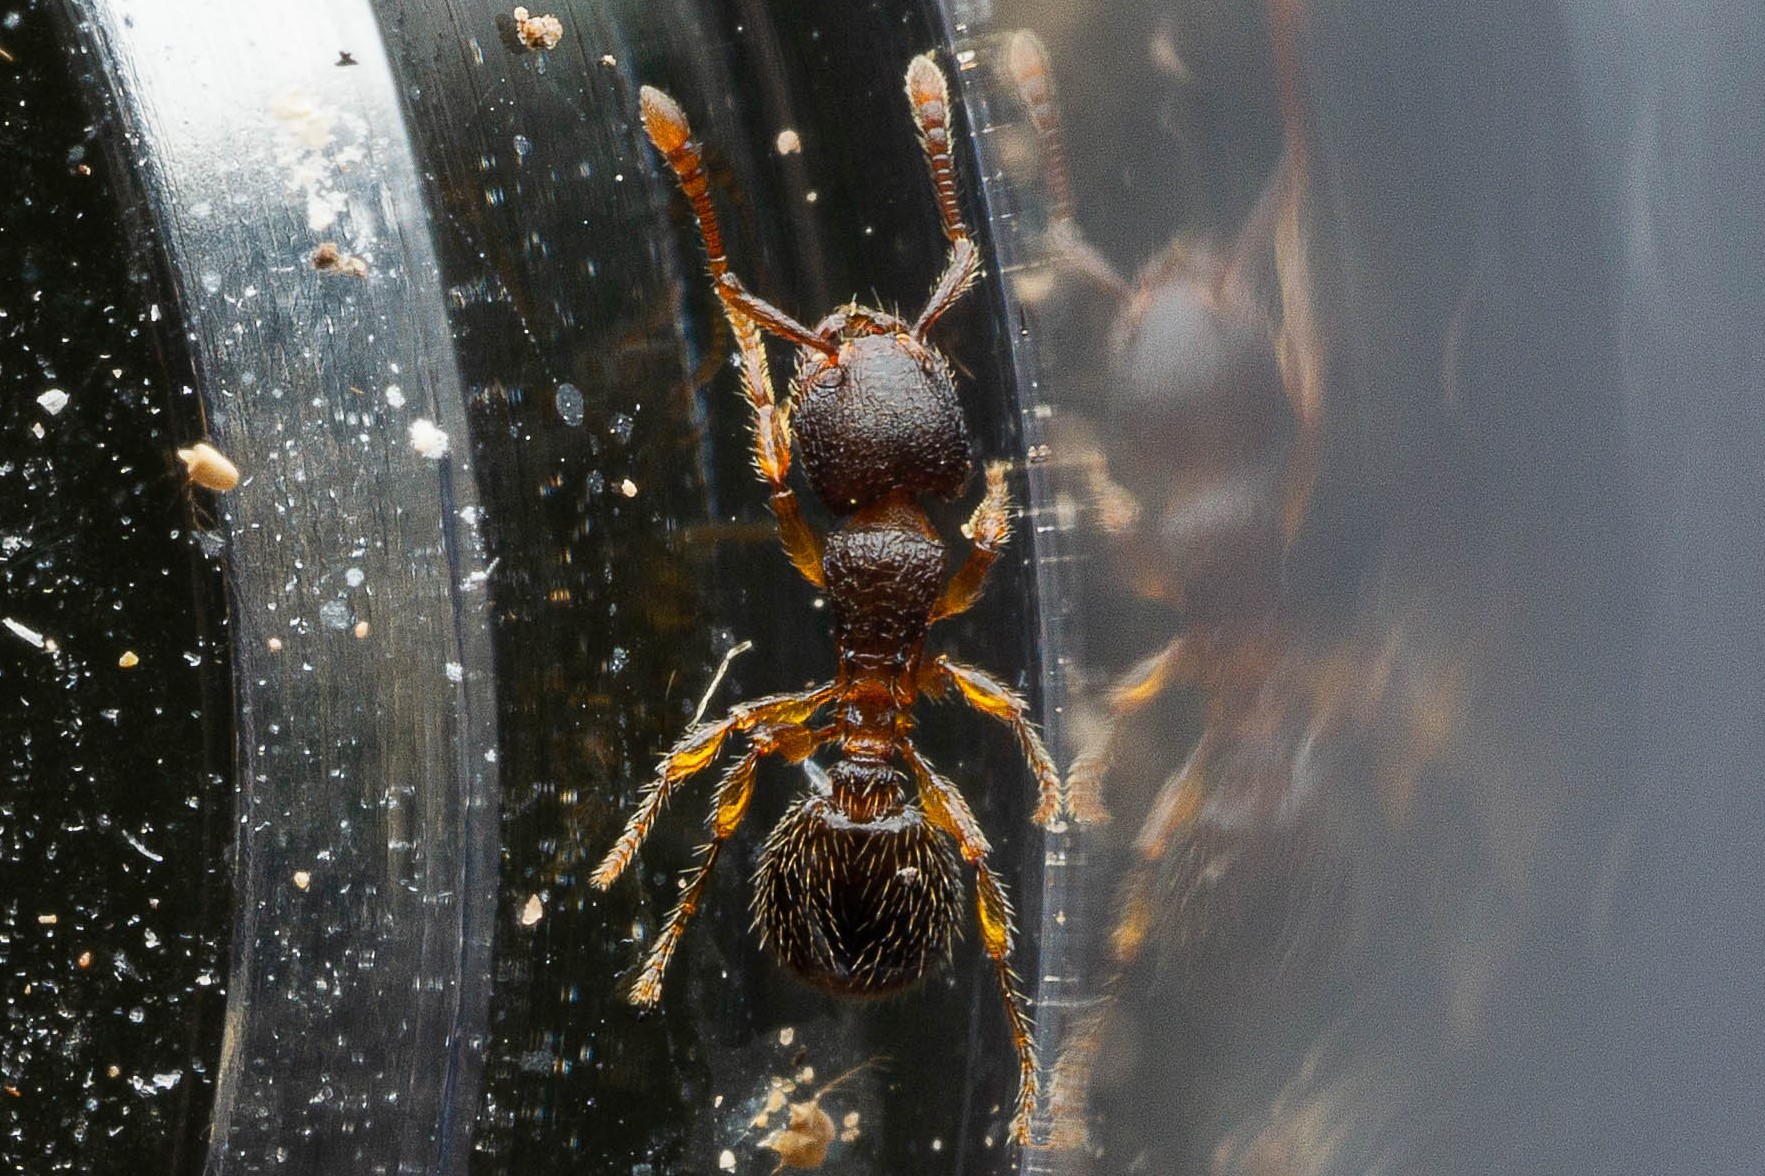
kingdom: Animalia
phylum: Arthropoda
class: Insecta
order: Hymenoptera
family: Formicidae
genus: Myrmecina
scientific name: Myrmecina americana
